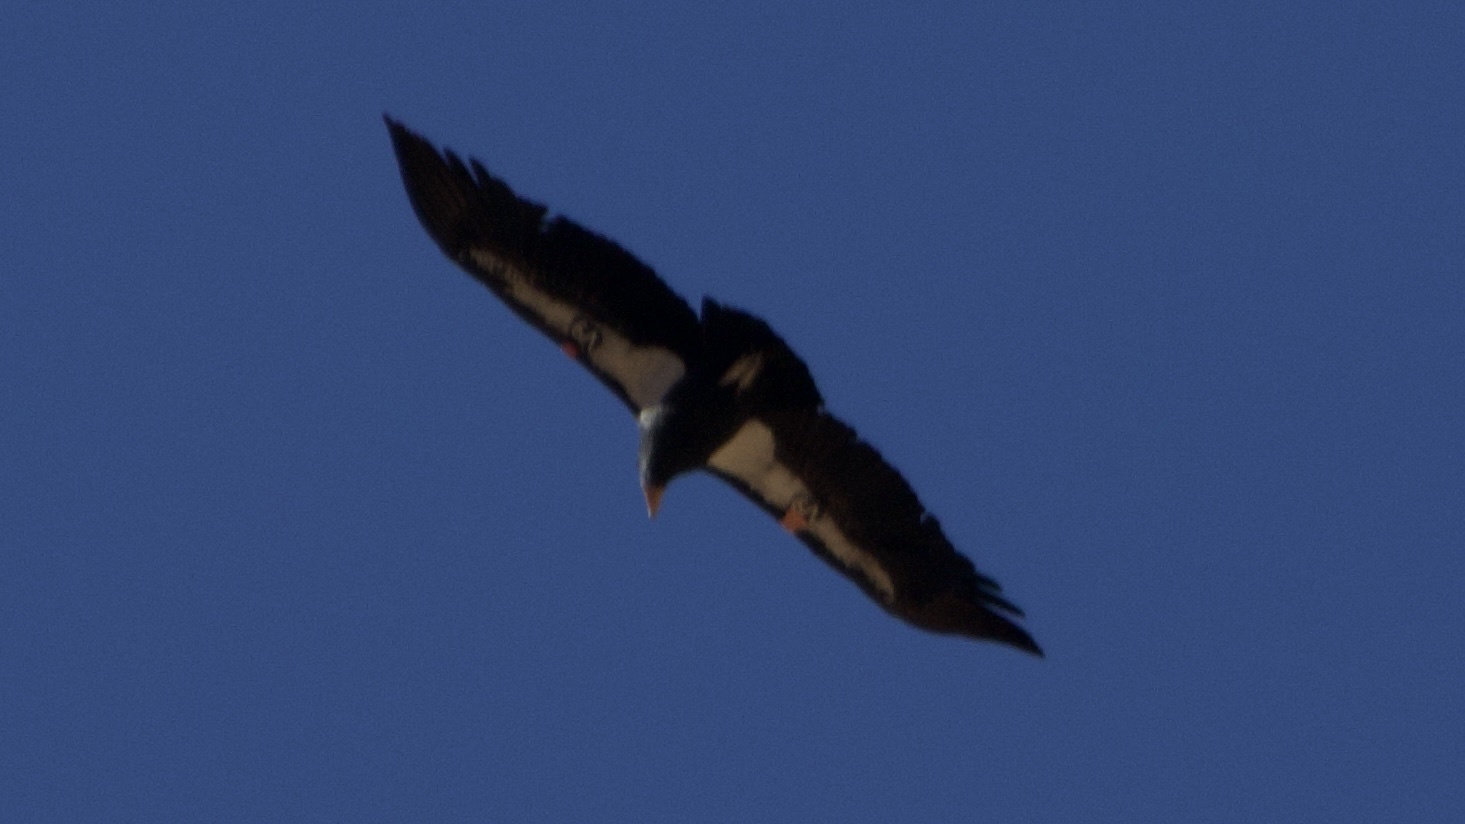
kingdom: Animalia
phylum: Chordata
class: Aves
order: Accipitriformes
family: Cathartidae
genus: Gymnogyps
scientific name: Gymnogyps californianus
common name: California condor
